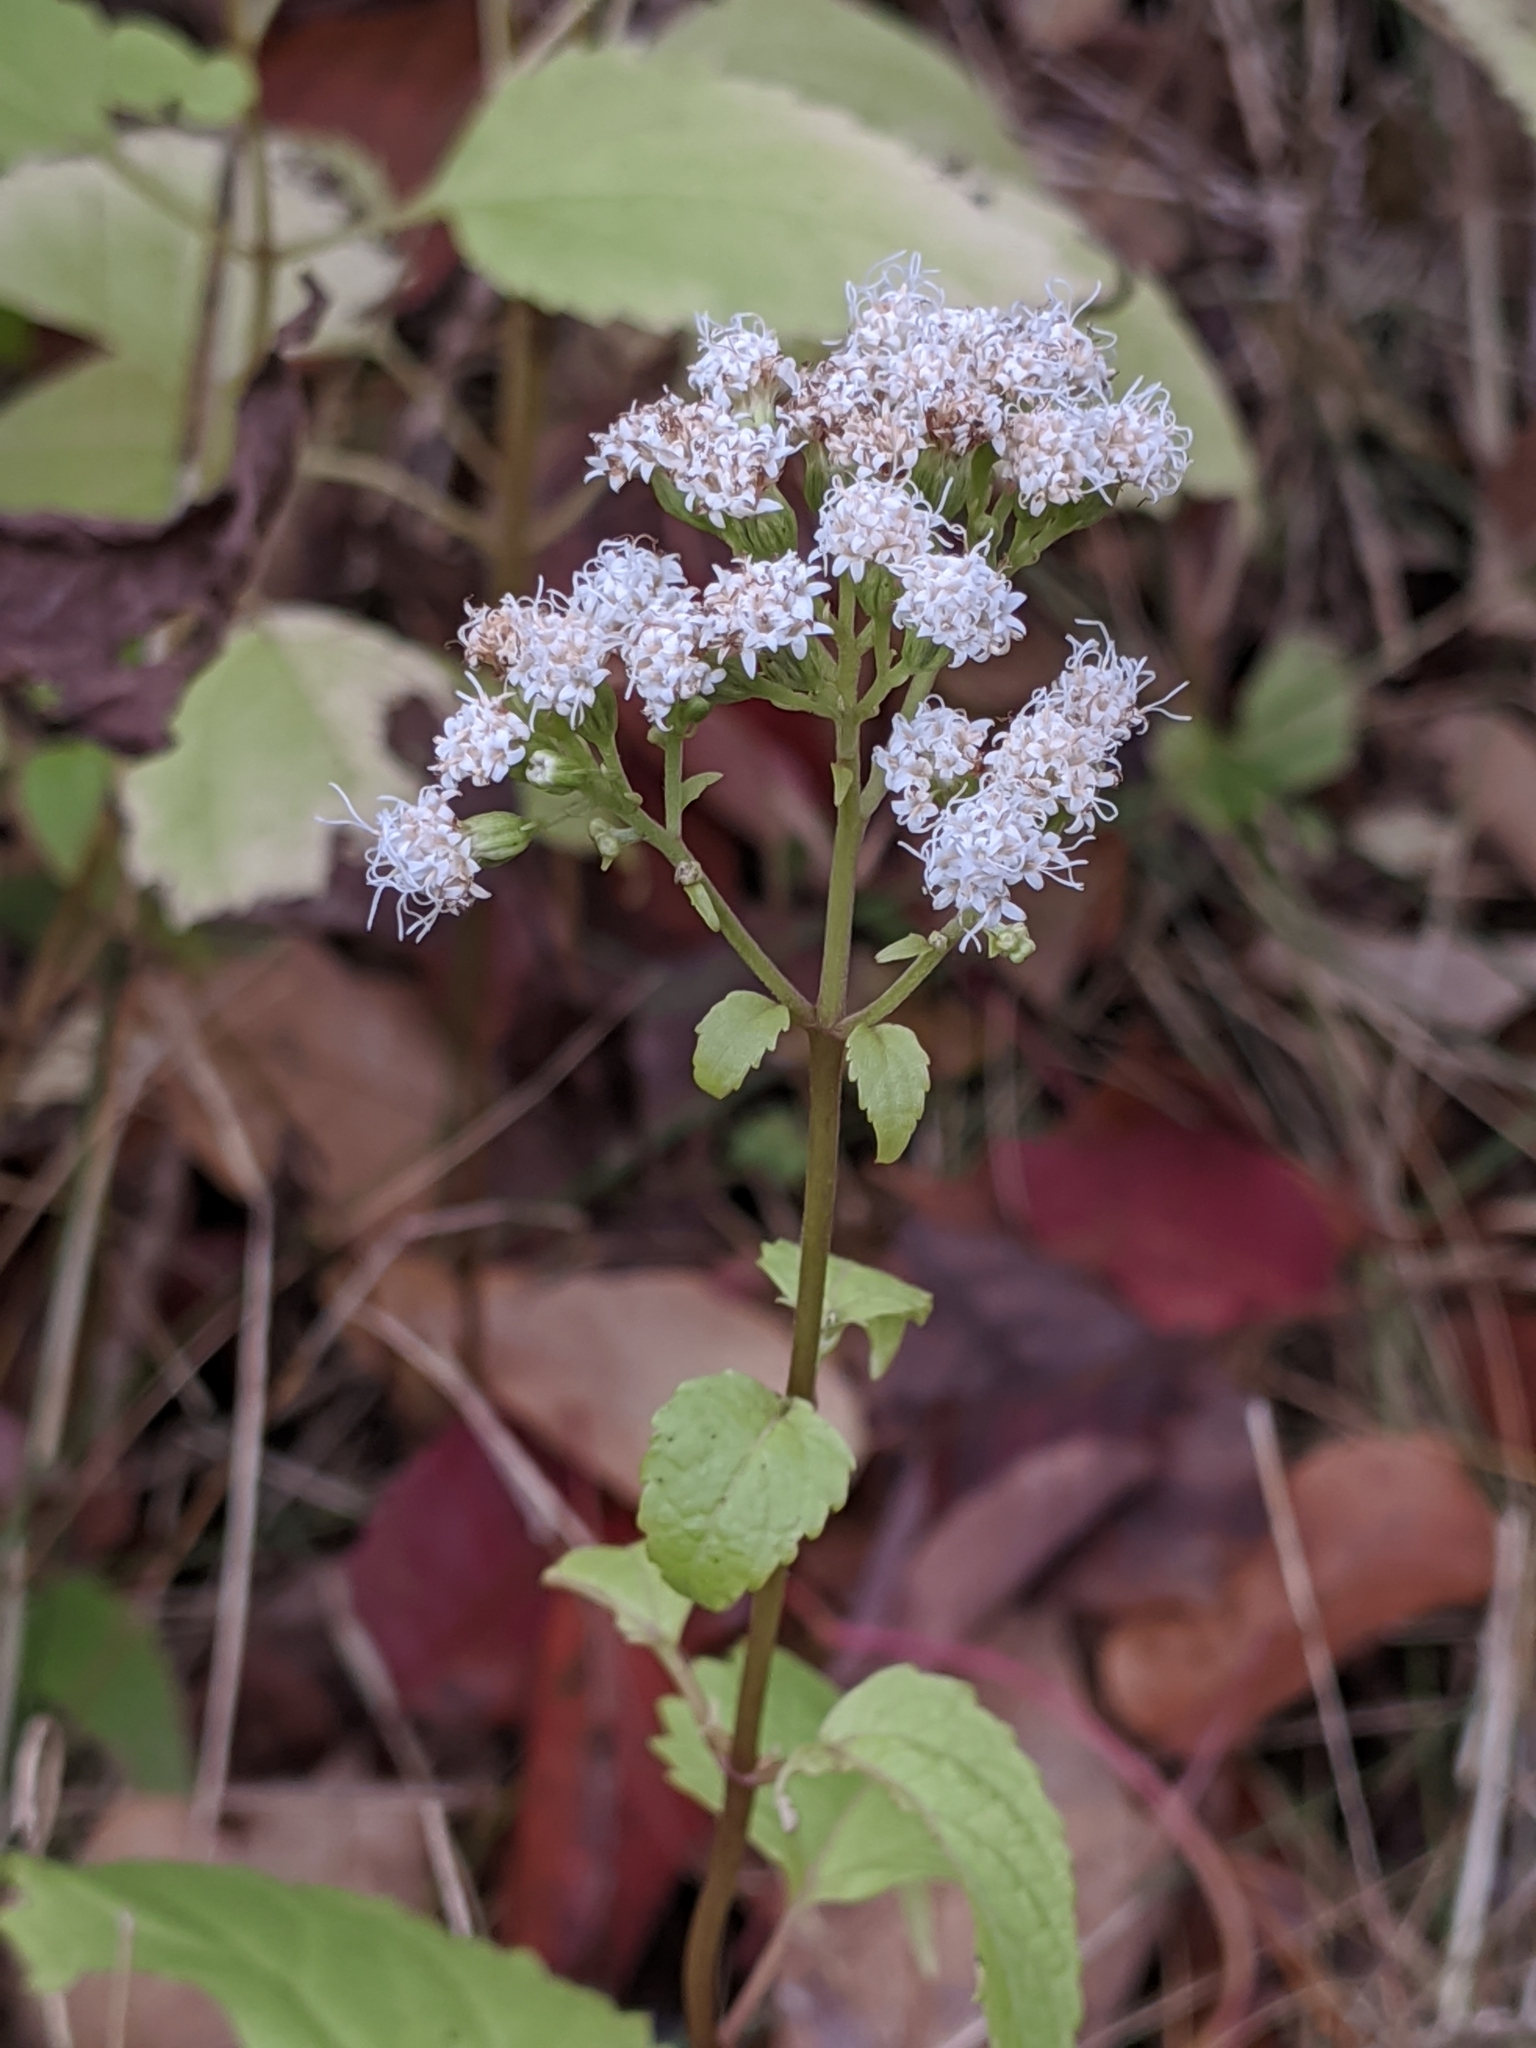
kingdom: Plantae
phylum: Tracheophyta
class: Magnoliopsida
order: Asterales
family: Asteraceae
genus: Ageratina
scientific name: Ageratina altissima
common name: White snakeroot
